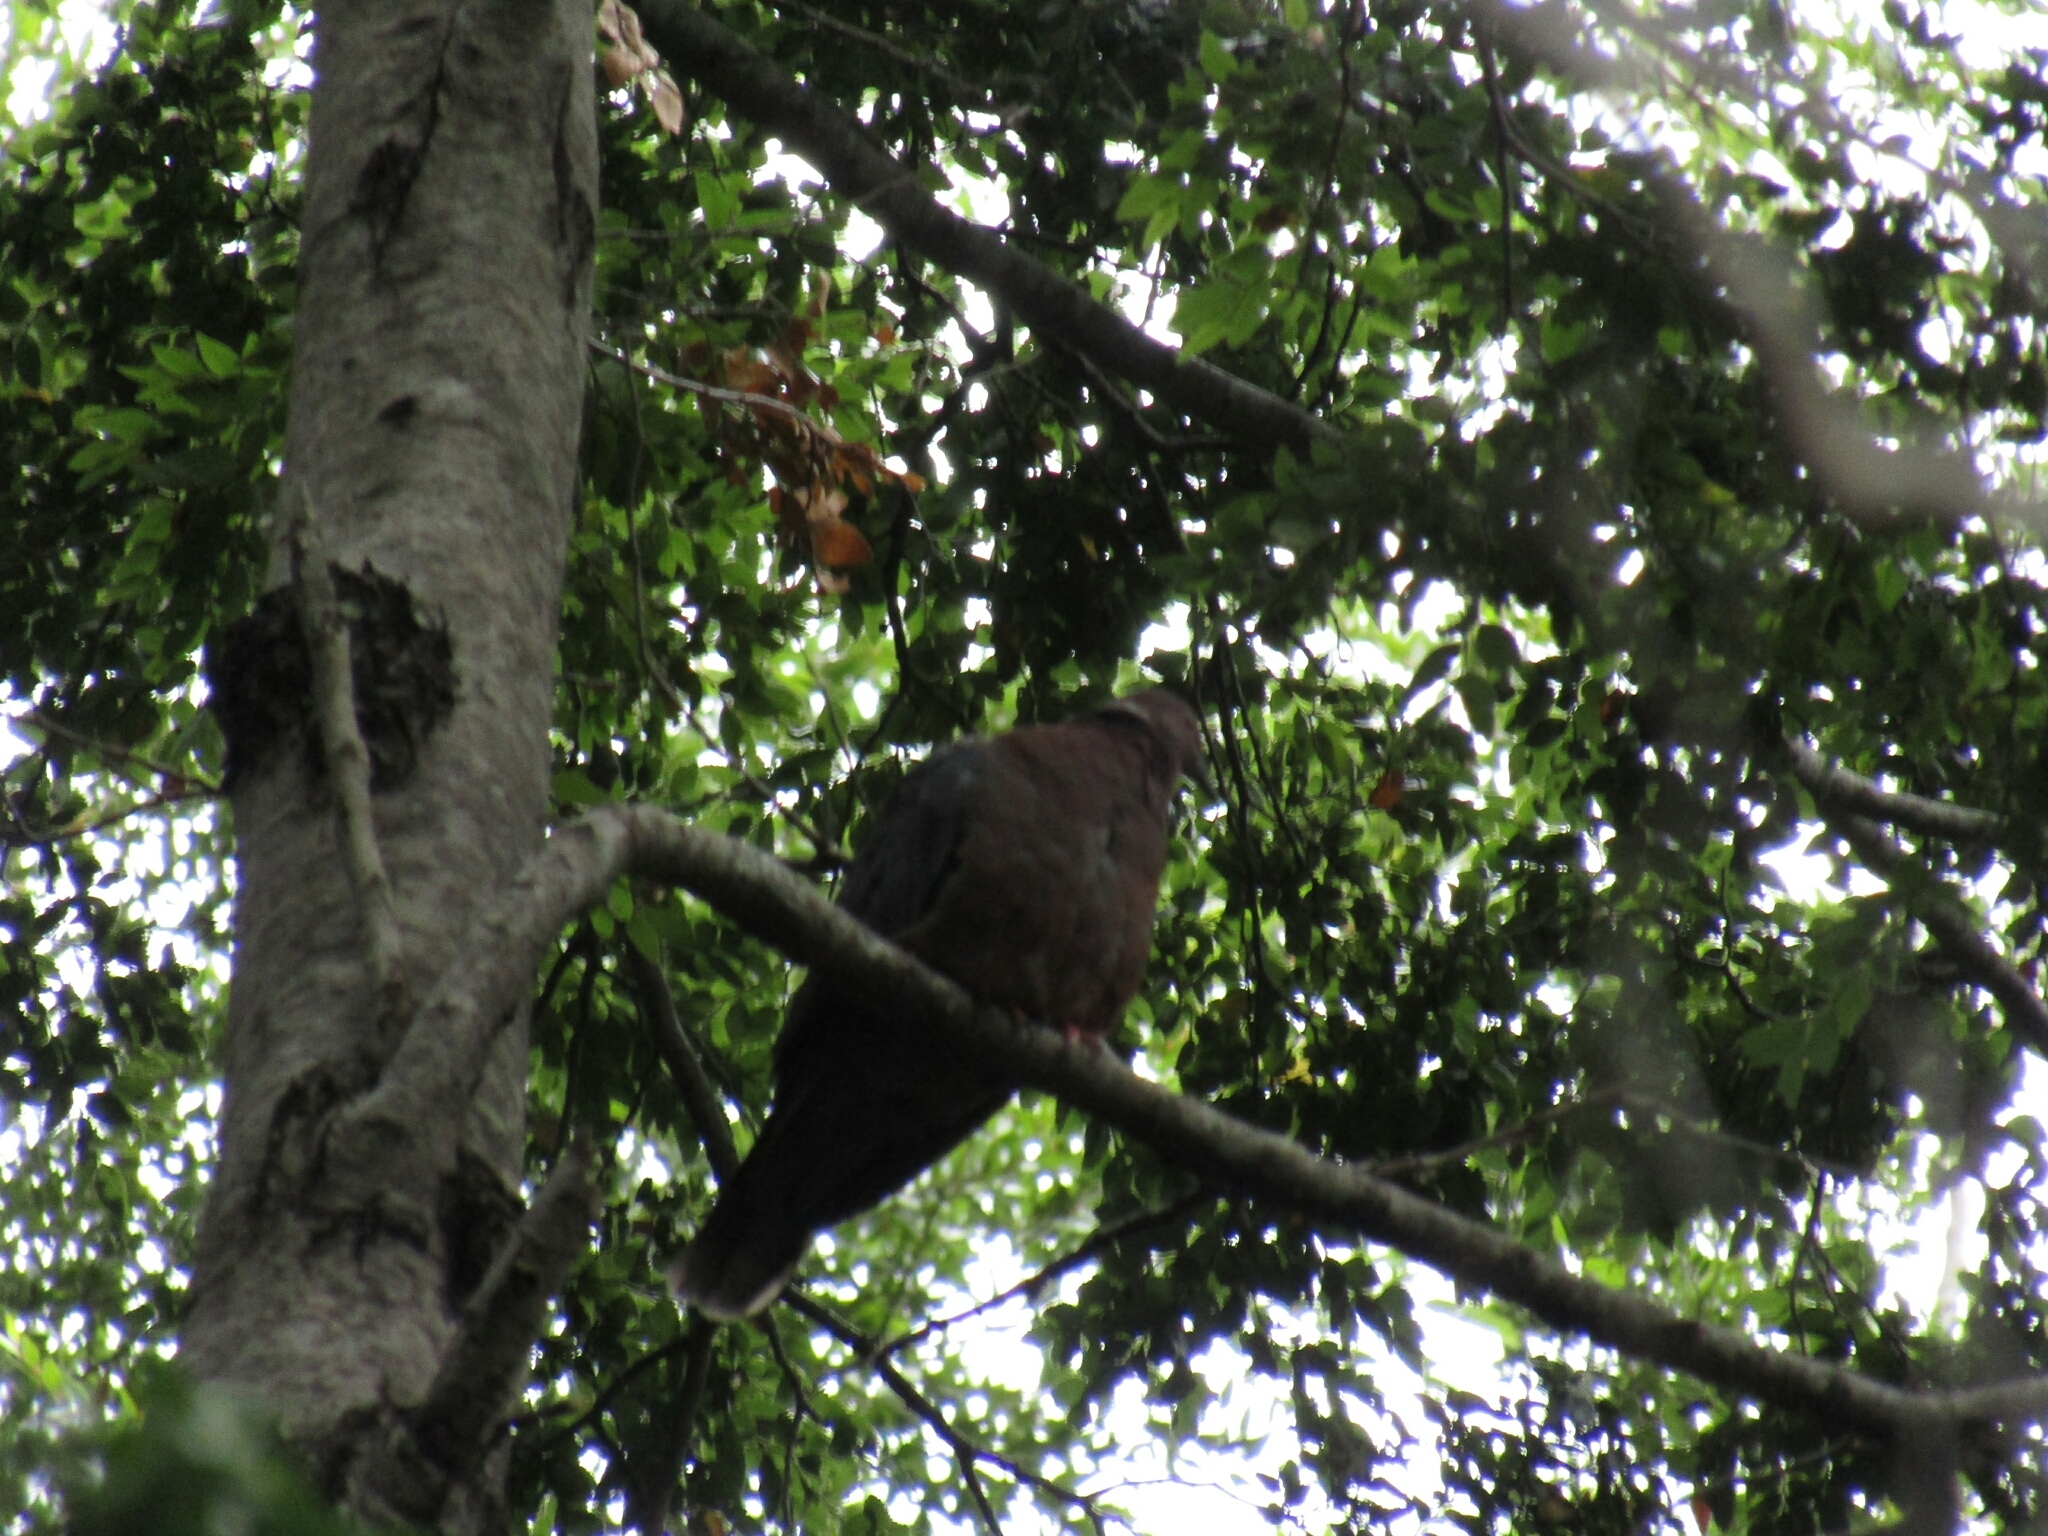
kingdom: Animalia
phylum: Chordata
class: Aves
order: Columbiformes
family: Columbidae
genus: Patagioenas
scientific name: Patagioenas araucana
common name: Chilean pigeon
